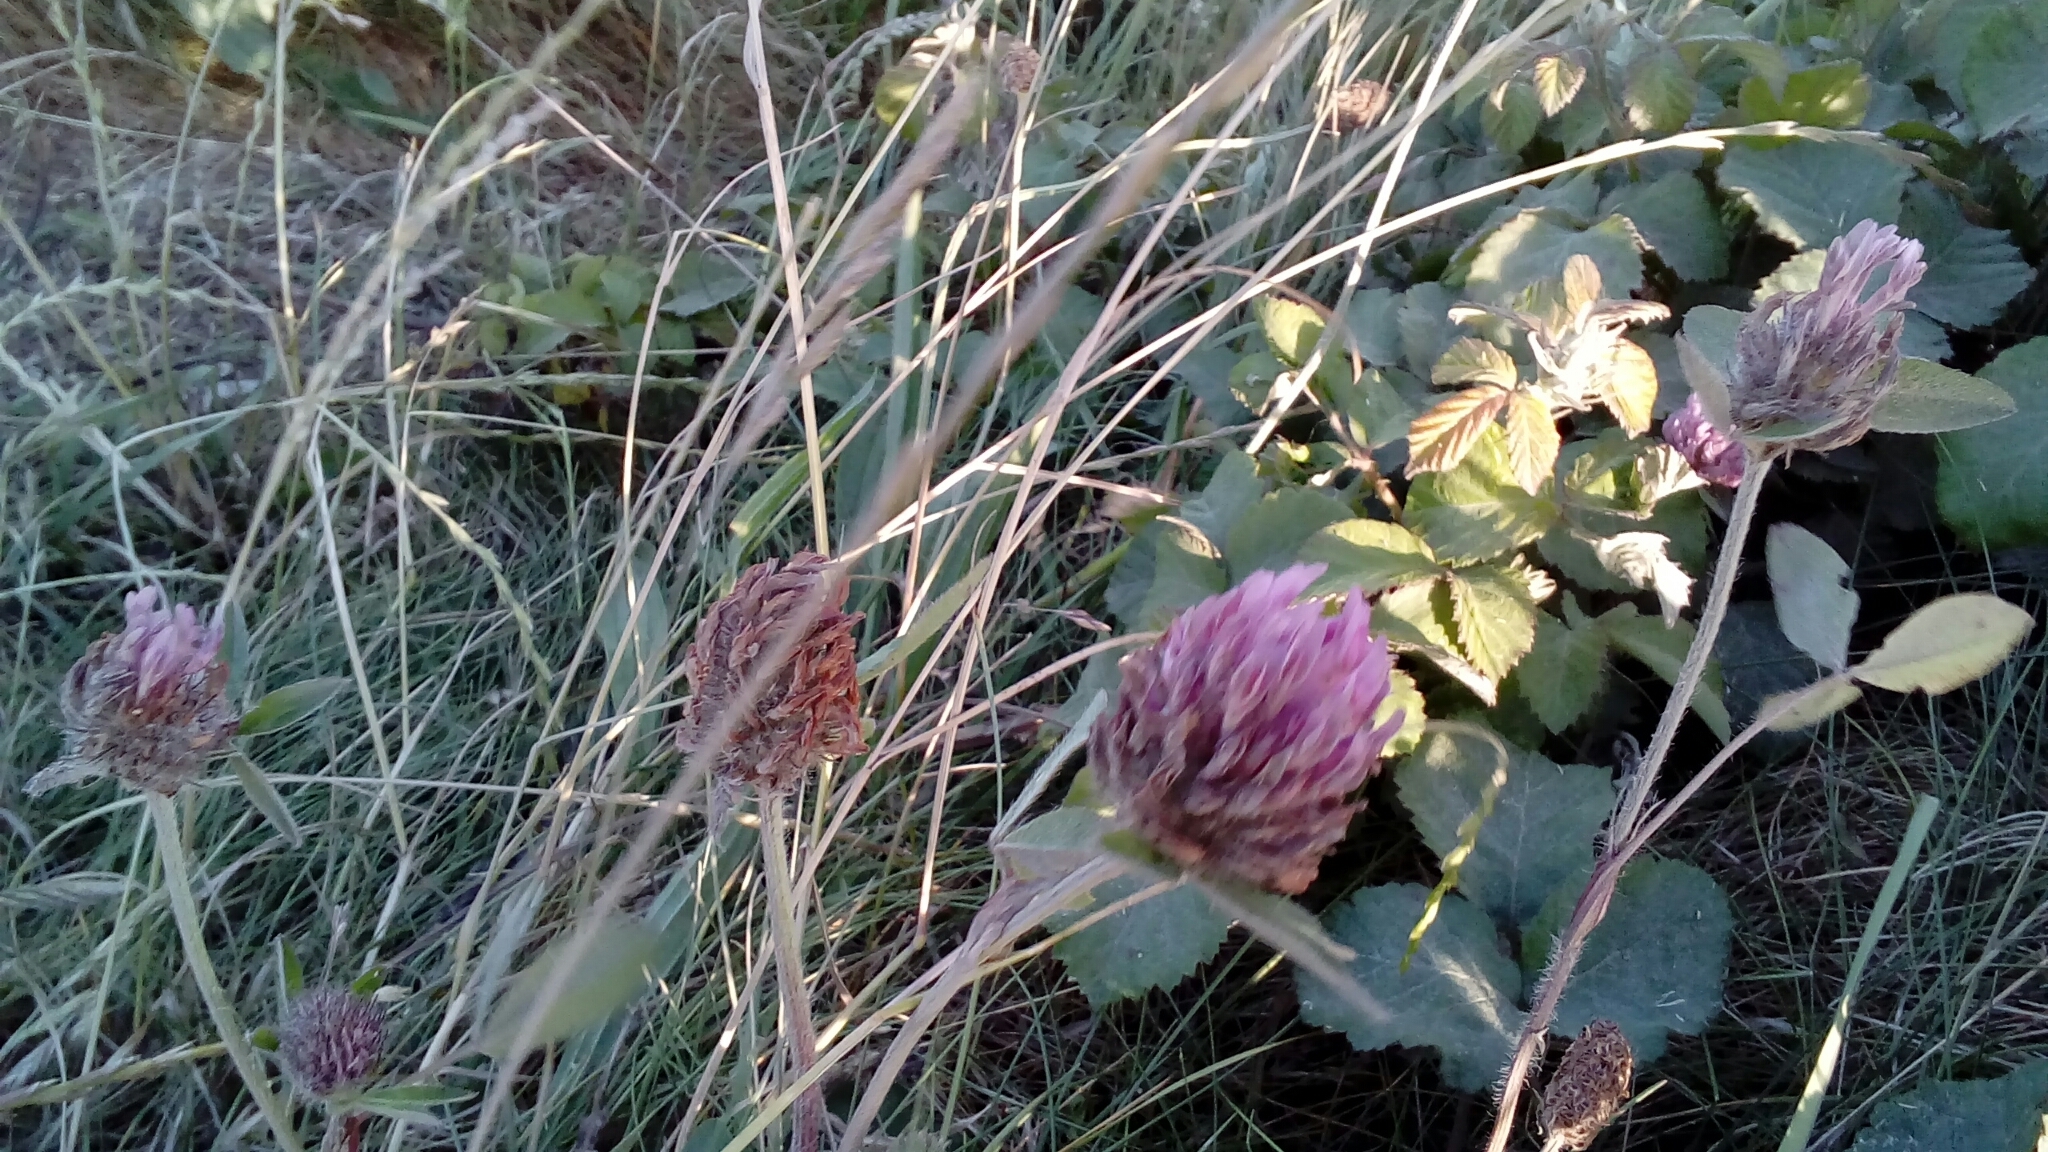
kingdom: Plantae
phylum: Tracheophyta
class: Magnoliopsida
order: Fabales
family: Fabaceae
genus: Trifolium
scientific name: Trifolium pratense
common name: Red clover
